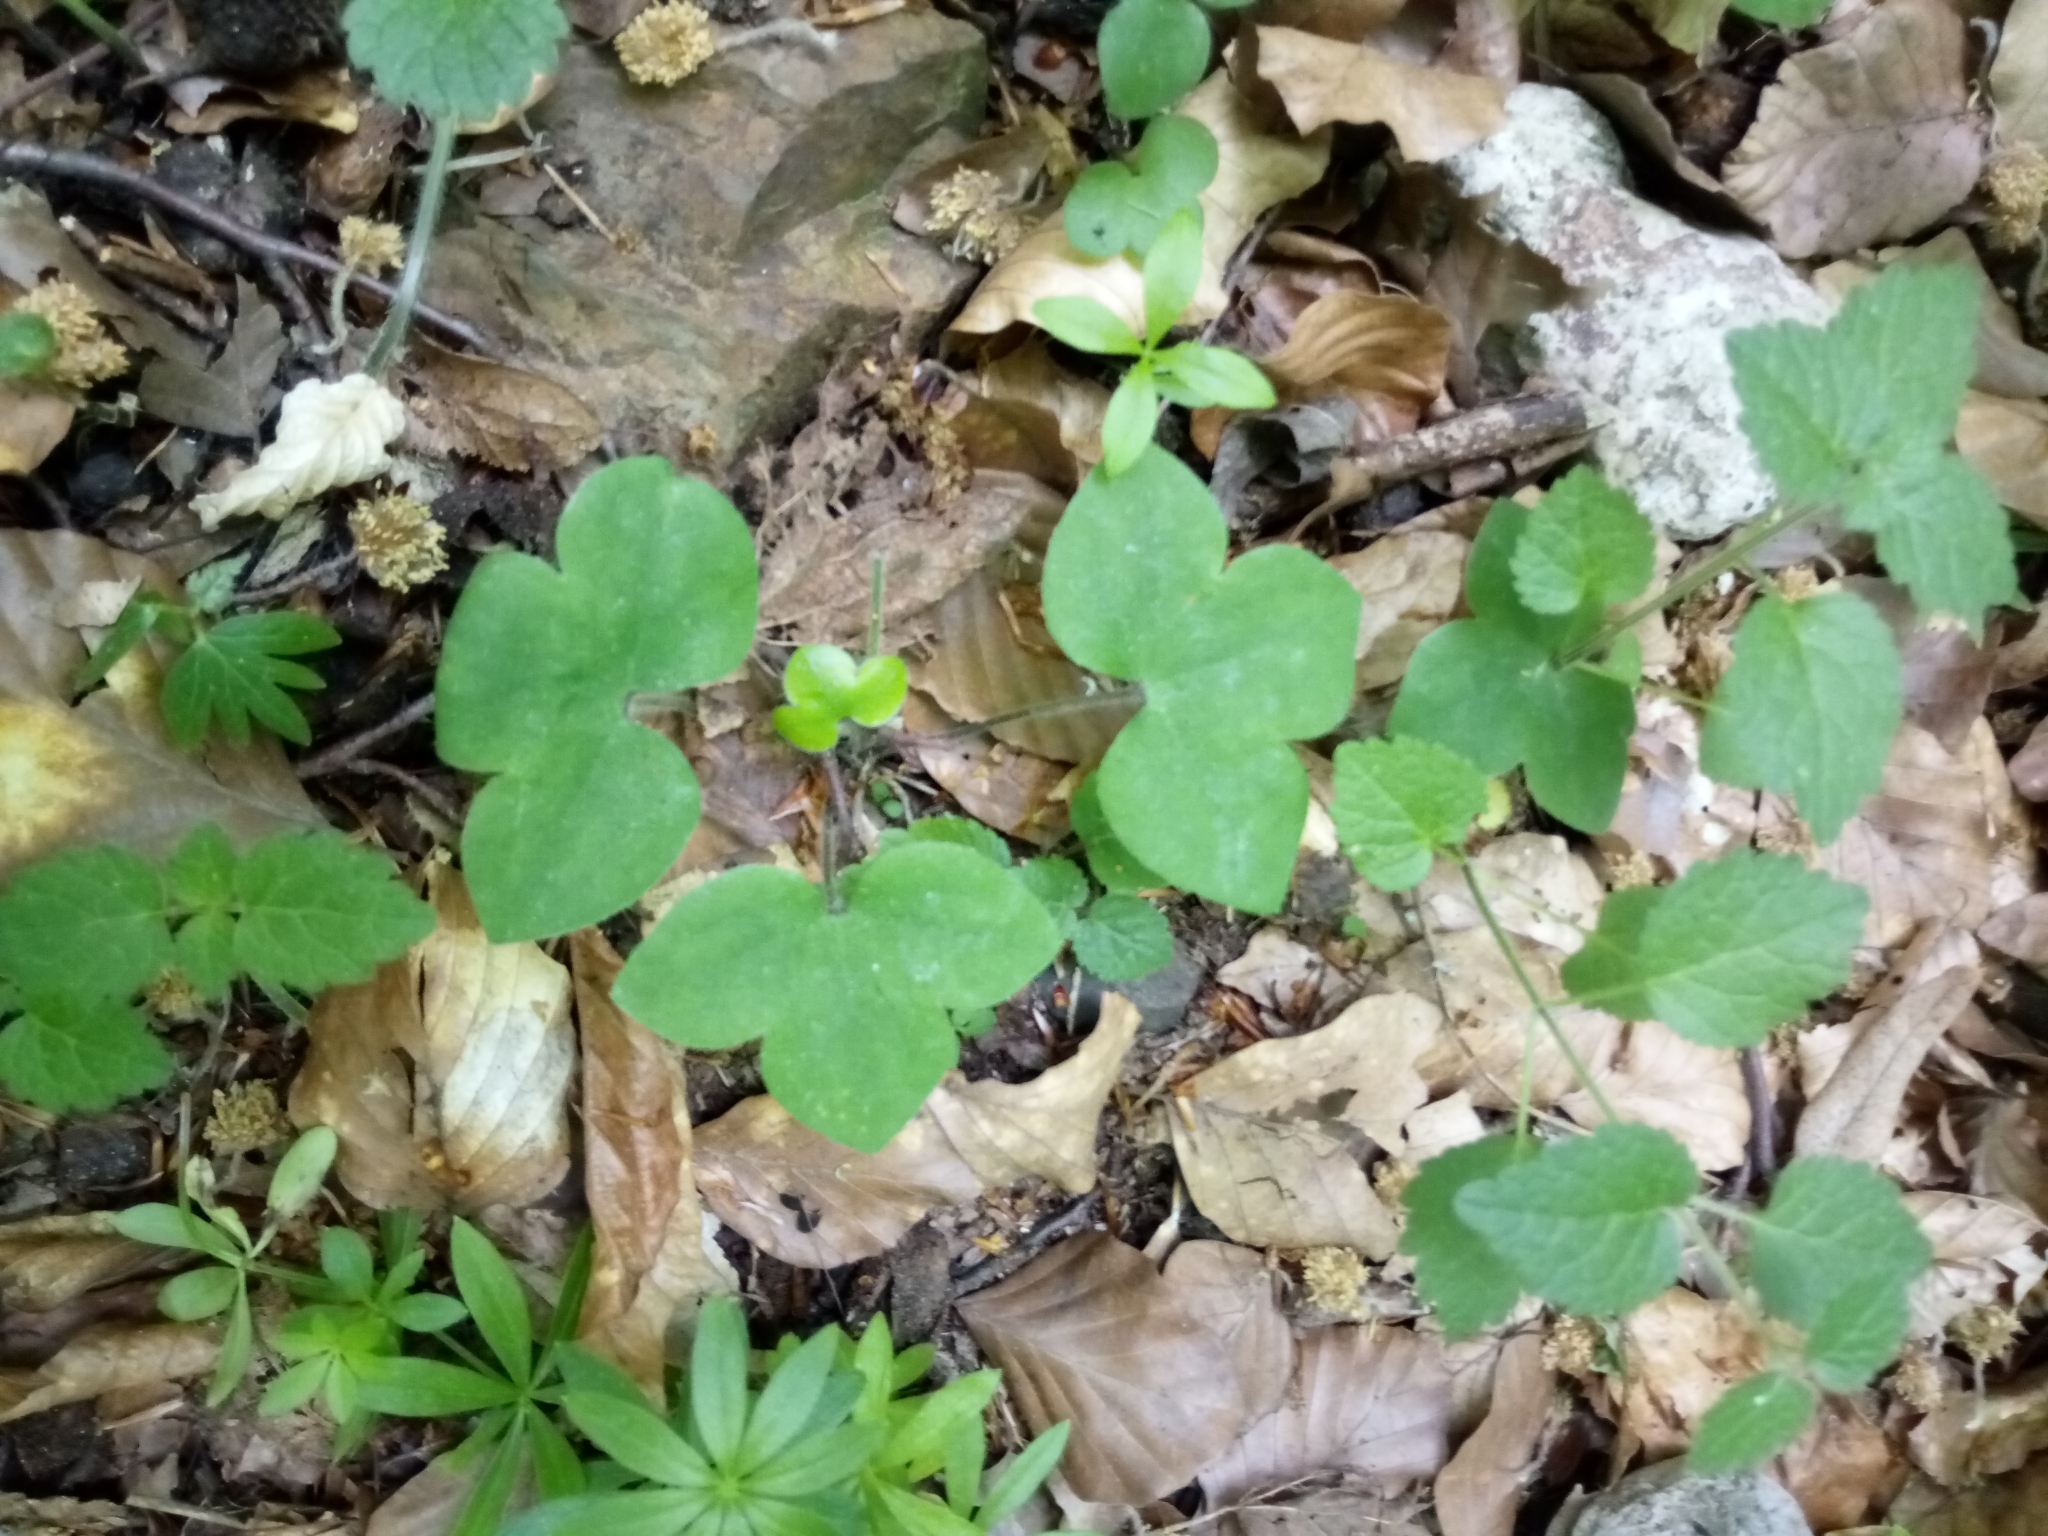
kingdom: Plantae
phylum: Tracheophyta
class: Magnoliopsida
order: Ranunculales
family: Ranunculaceae
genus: Hepatica
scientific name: Hepatica nobilis
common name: Liverleaf
